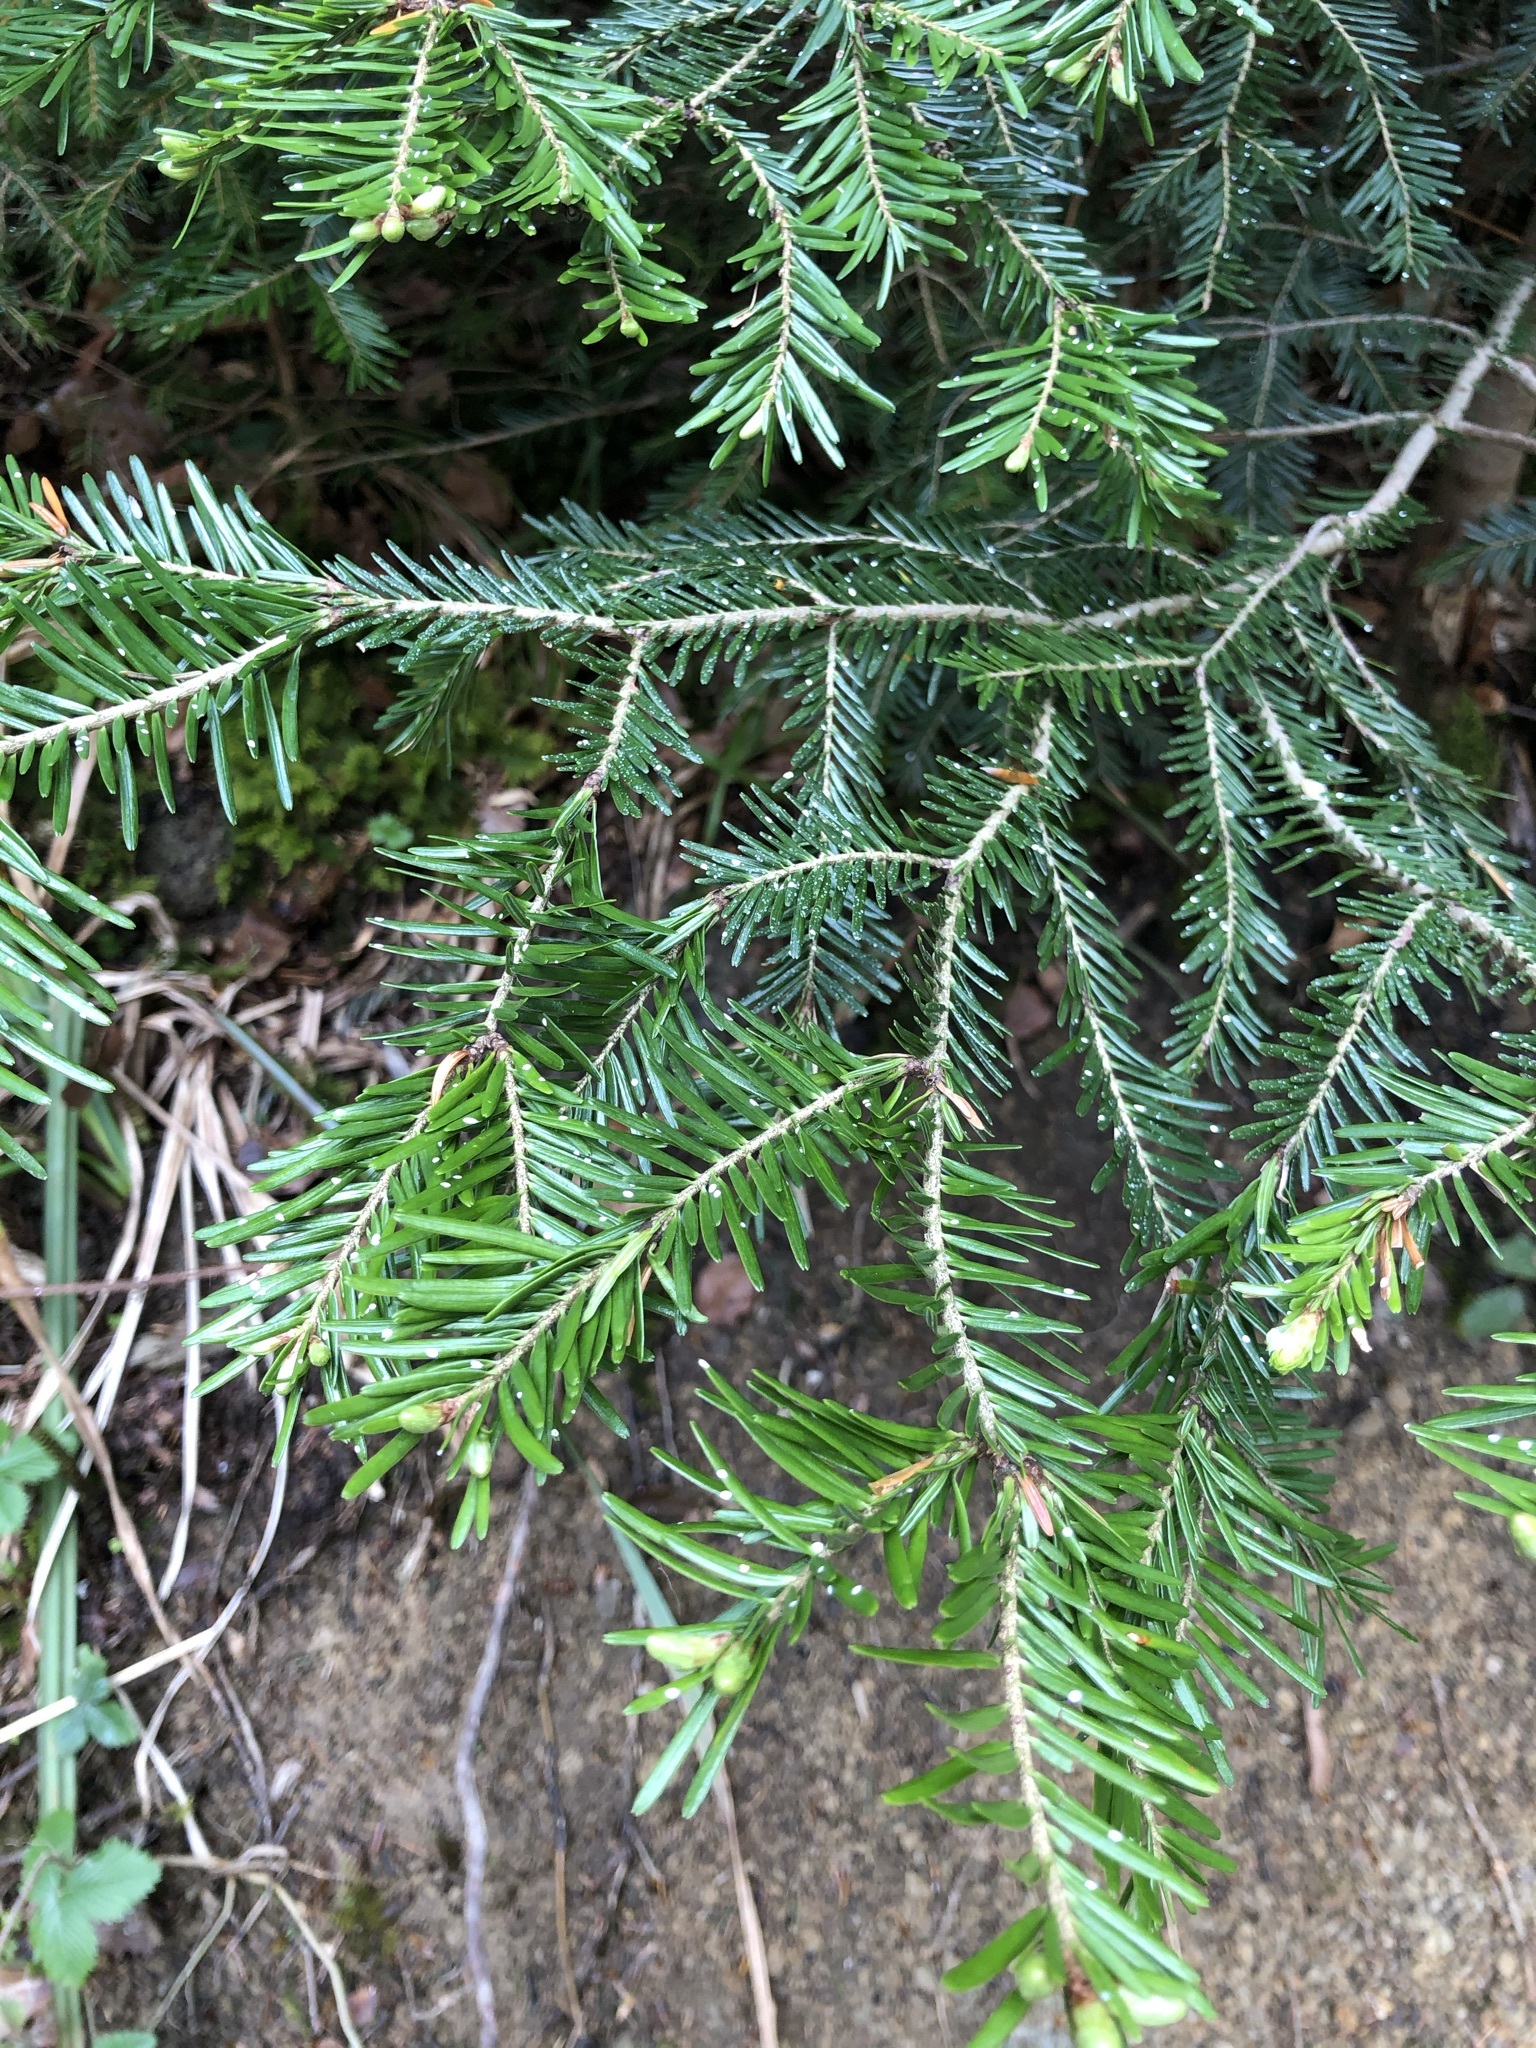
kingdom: Plantae
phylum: Tracheophyta
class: Pinopsida
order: Pinales
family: Pinaceae
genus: Abies
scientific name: Abies alba
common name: Silver fir
